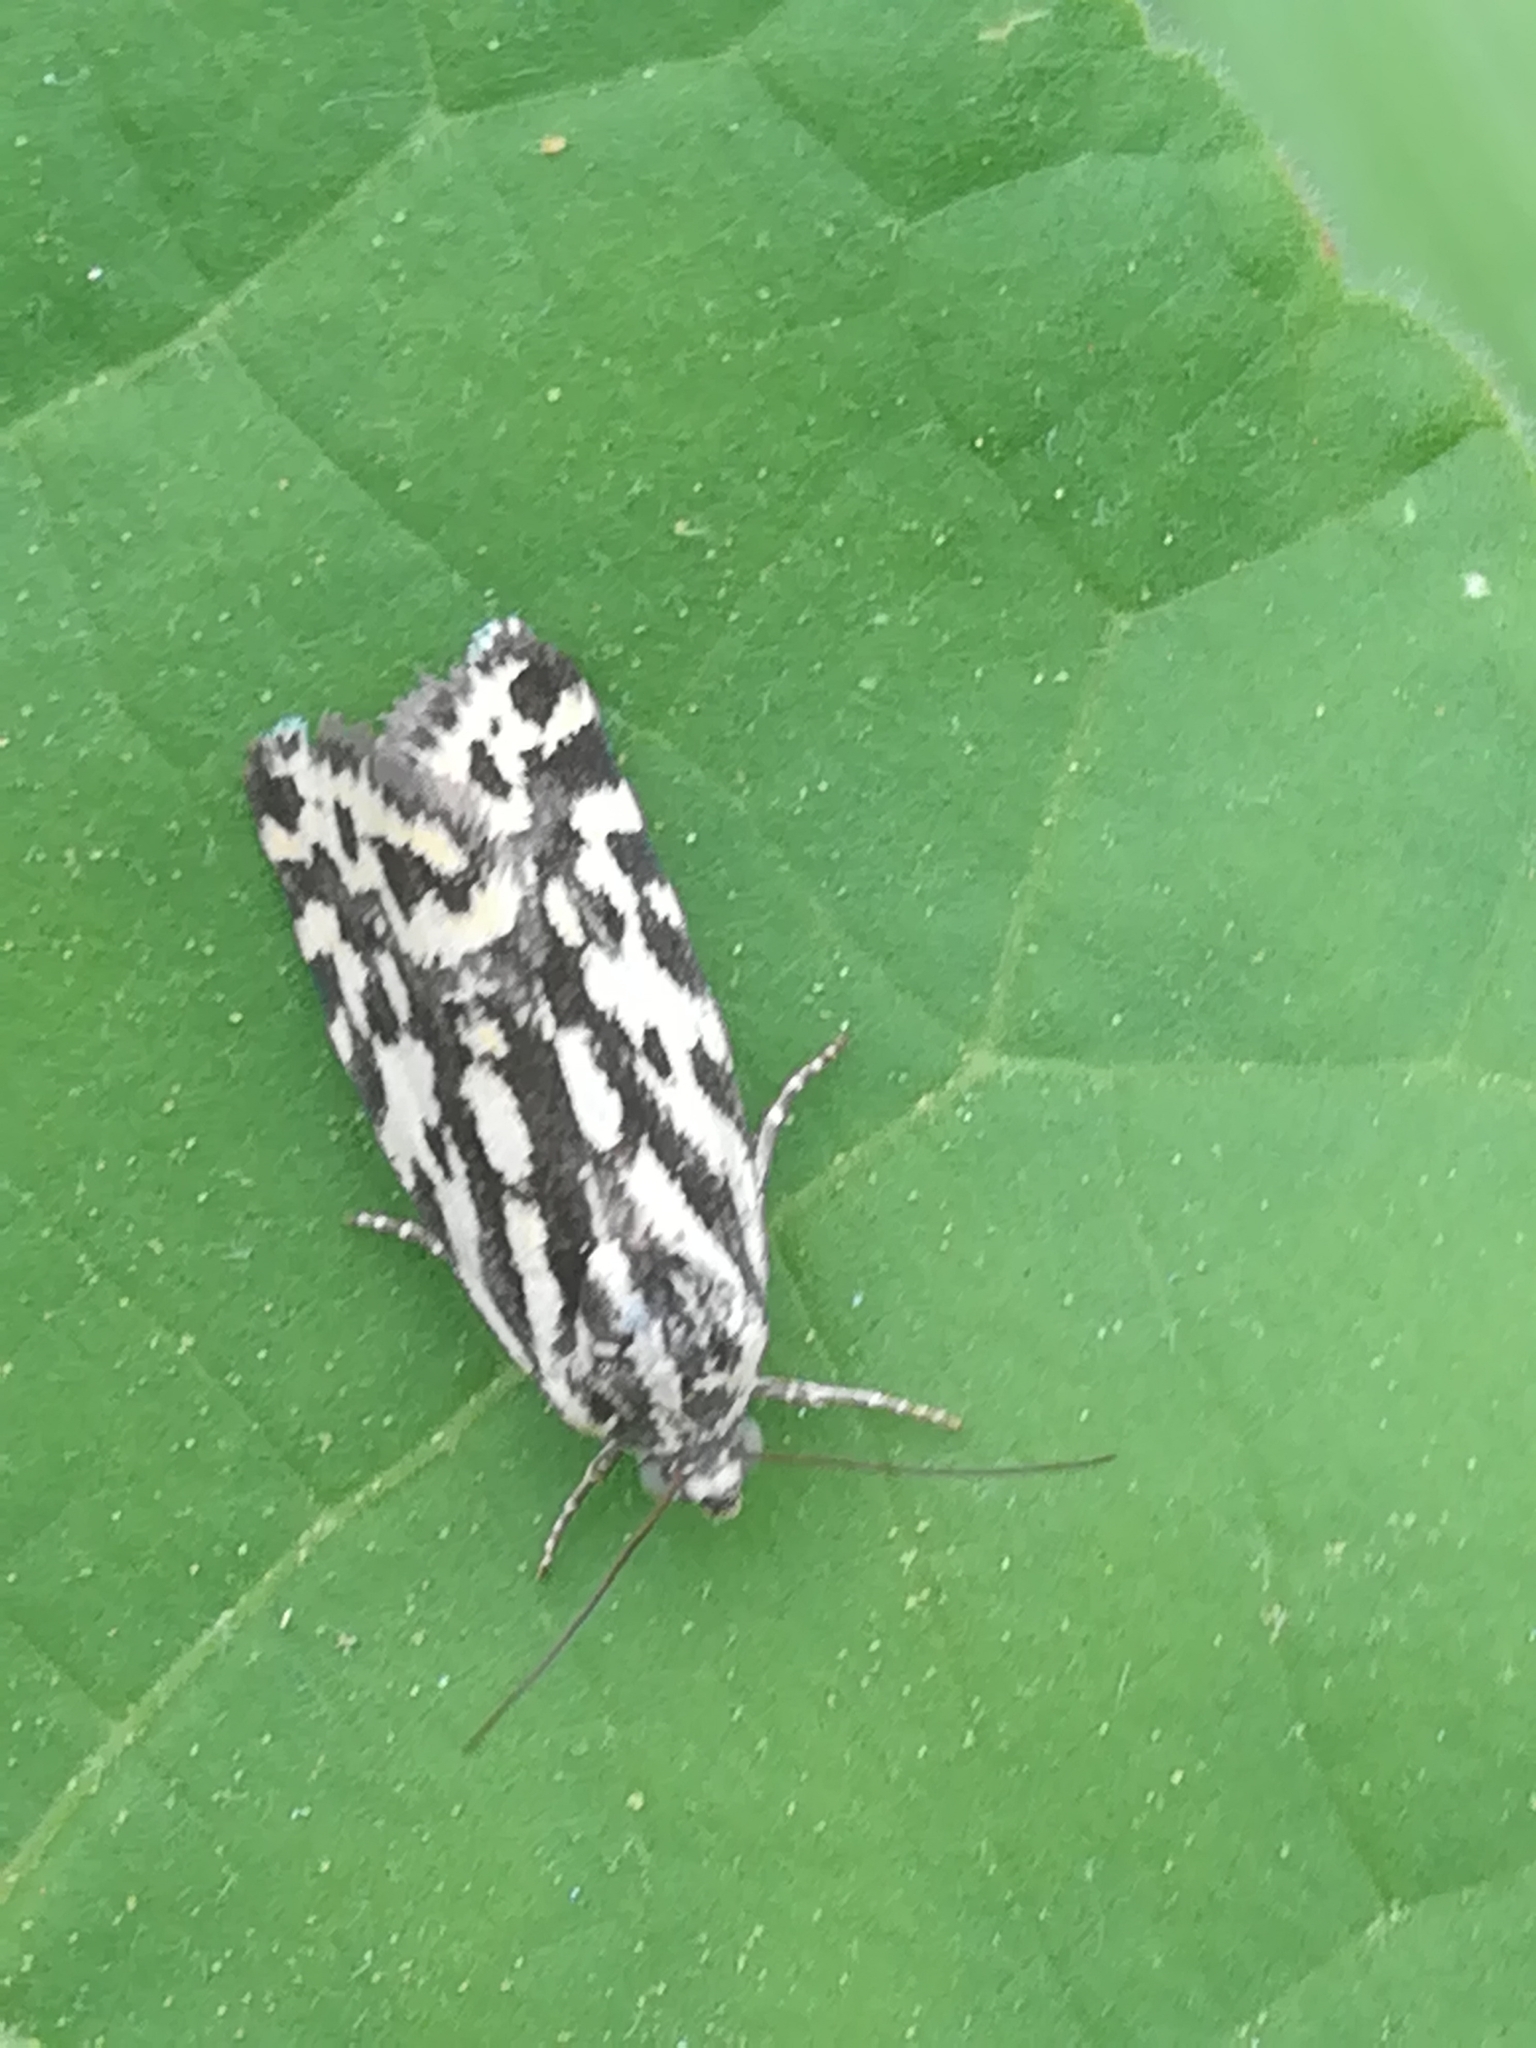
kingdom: Animalia
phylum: Arthropoda
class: Insecta
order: Lepidoptera
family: Noctuidae
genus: Acontia
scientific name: Acontia trabealis
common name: Spotted sulphur
